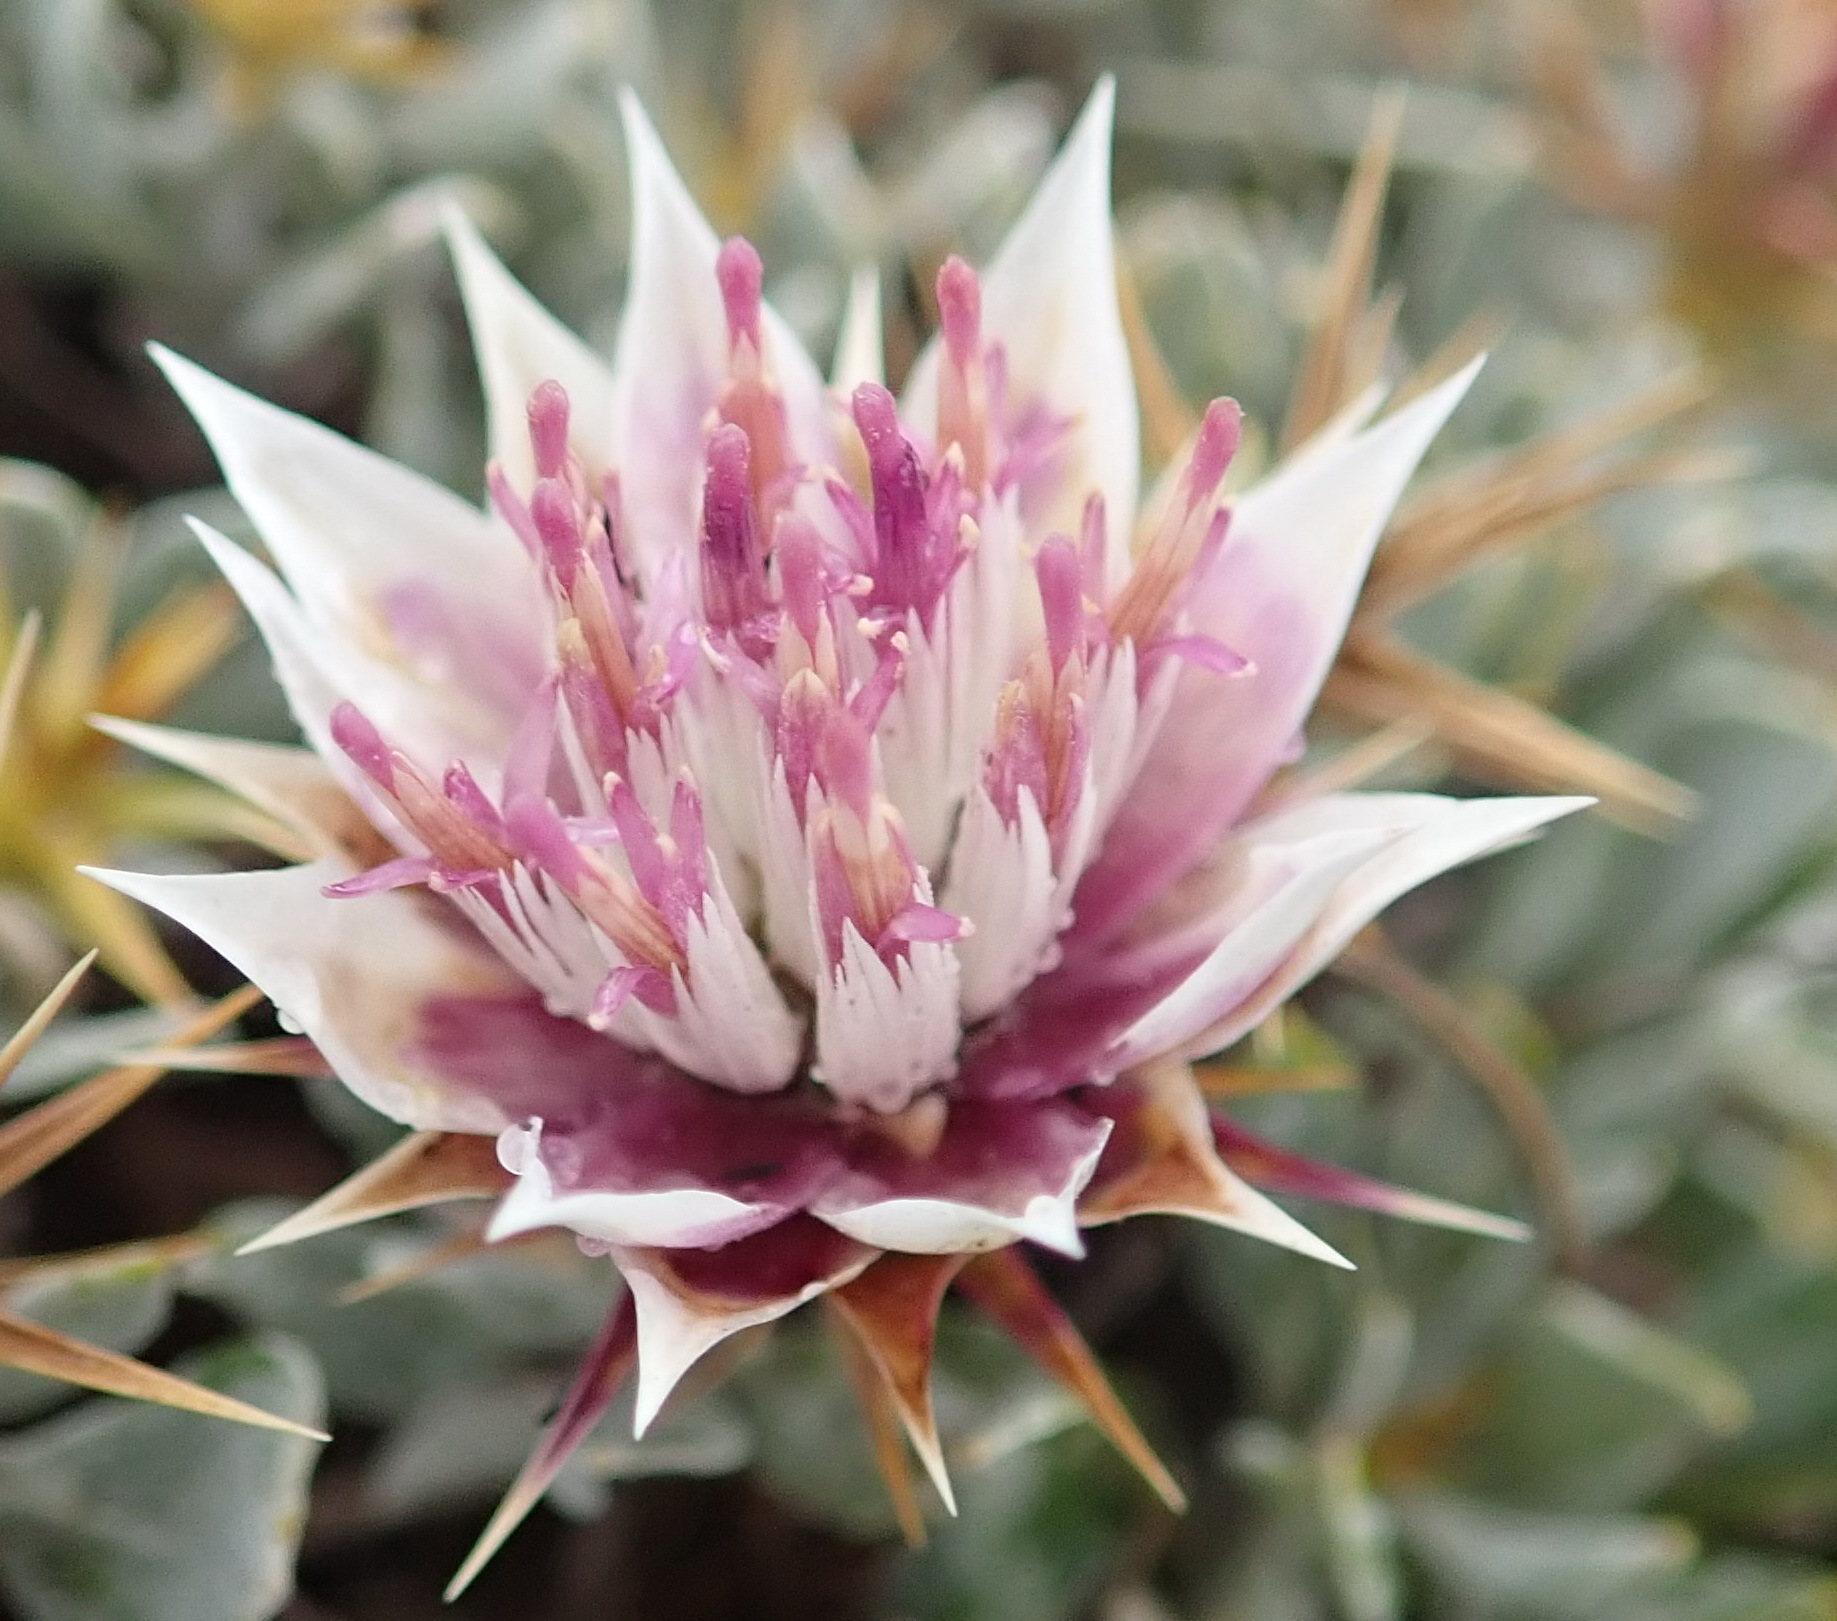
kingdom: Plantae
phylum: Tracheophyta
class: Magnoliopsida
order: Asterales
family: Asteraceae
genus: Macledium
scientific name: Macledium spinosum
